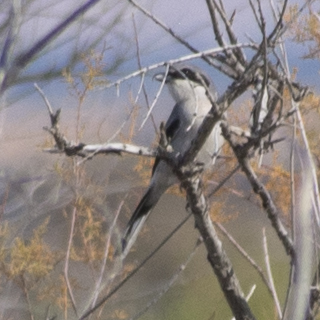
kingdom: Animalia
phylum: Chordata
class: Aves
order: Passeriformes
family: Laniidae
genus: Lanius
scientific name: Lanius ludovicianus
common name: Loggerhead shrike
